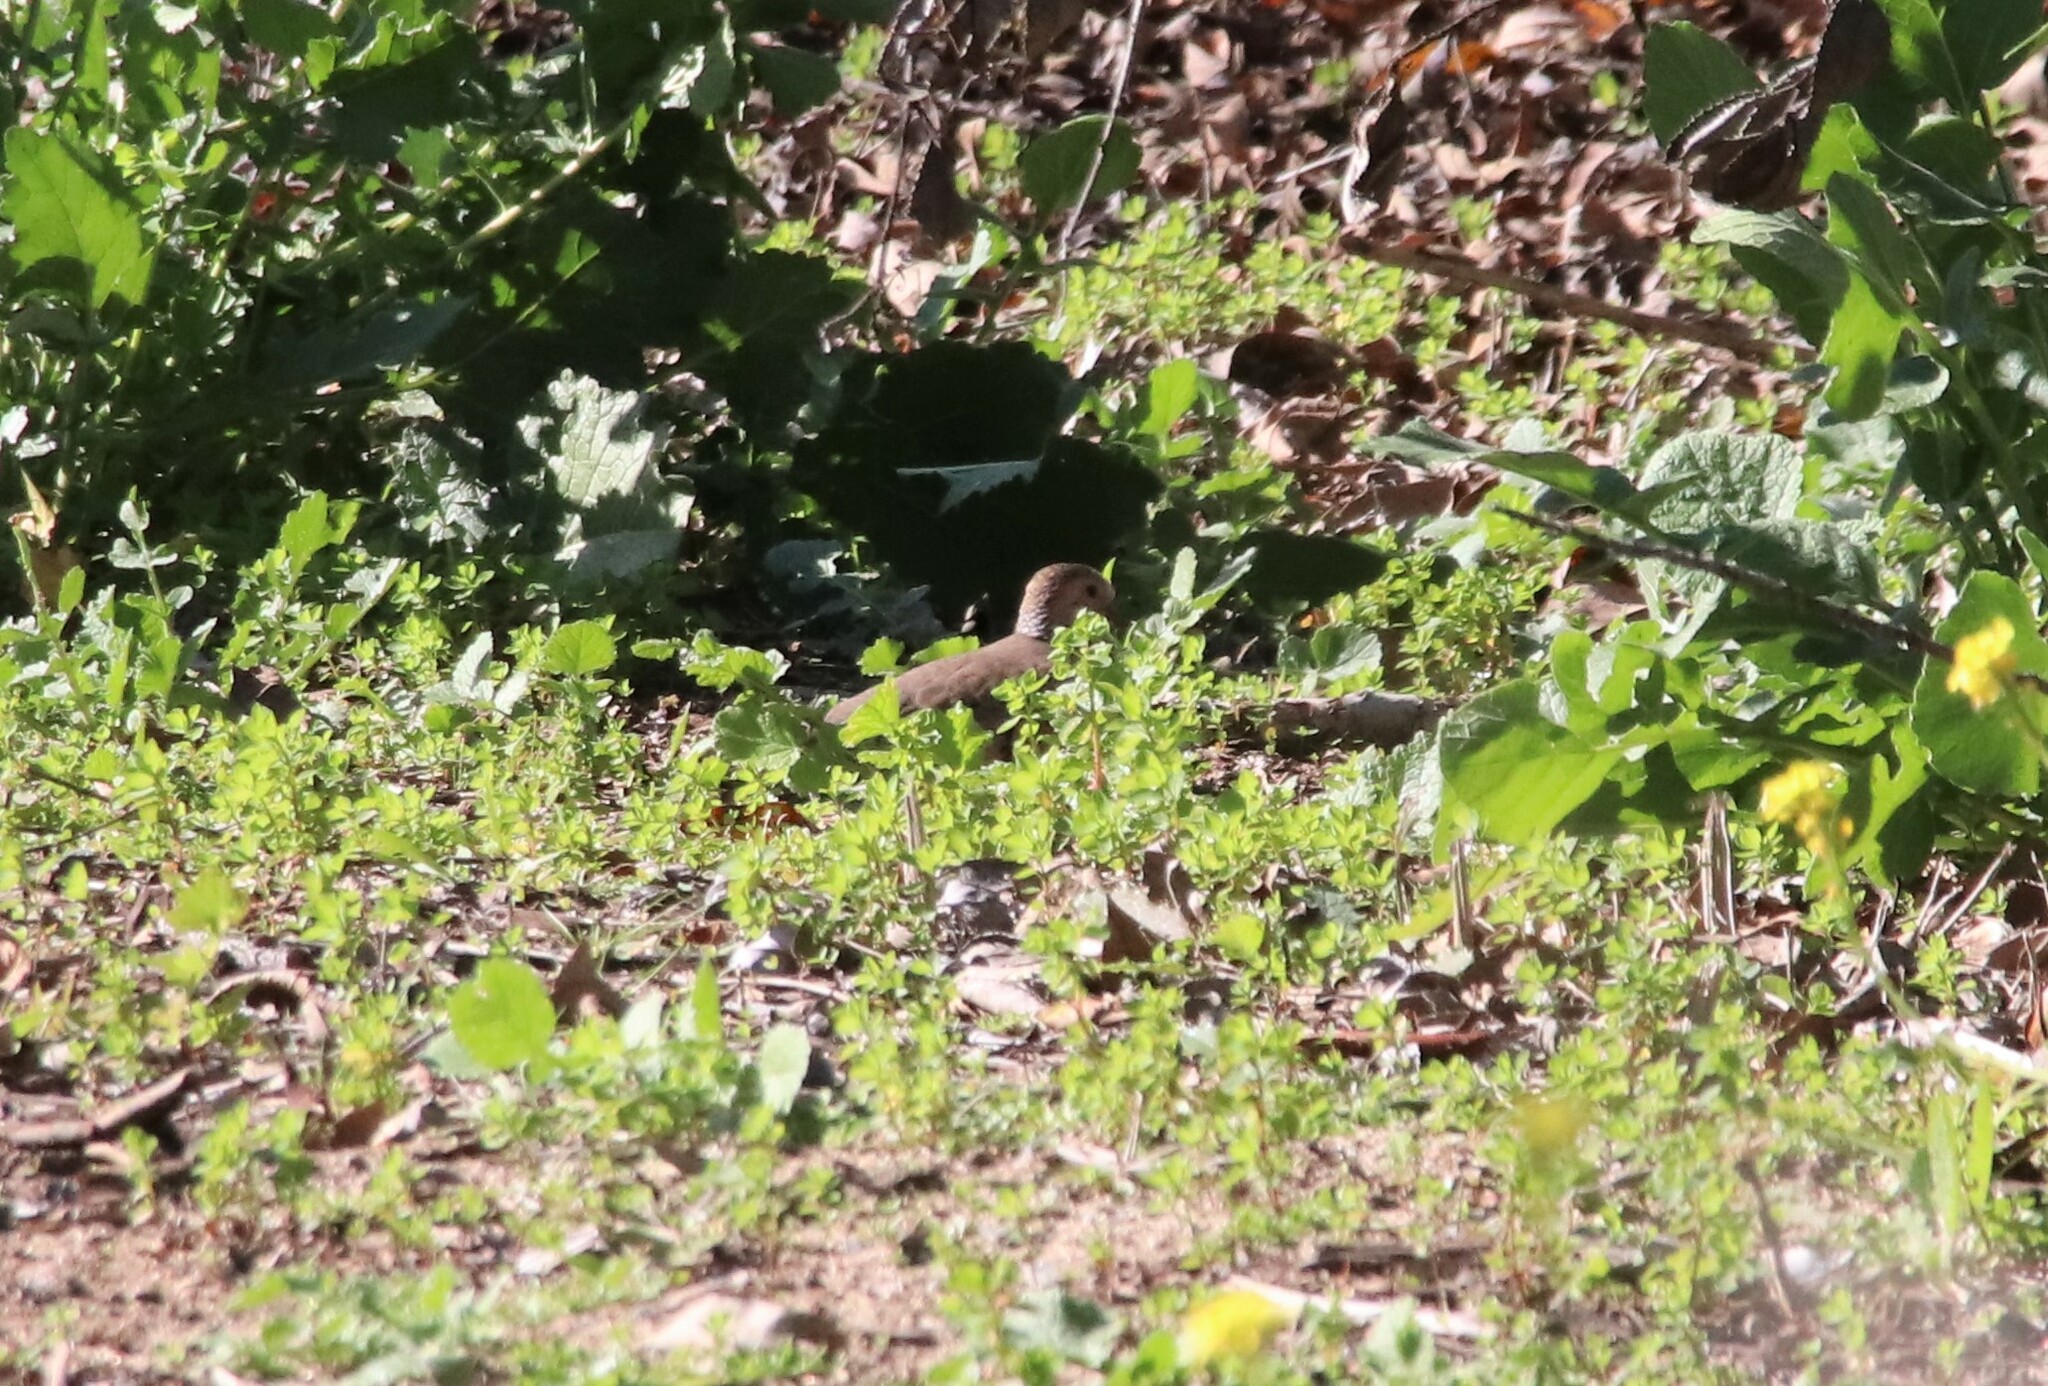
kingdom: Animalia
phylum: Chordata
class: Aves
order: Columbiformes
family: Columbidae
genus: Columbina
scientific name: Columbina passerina
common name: Common ground-dove
